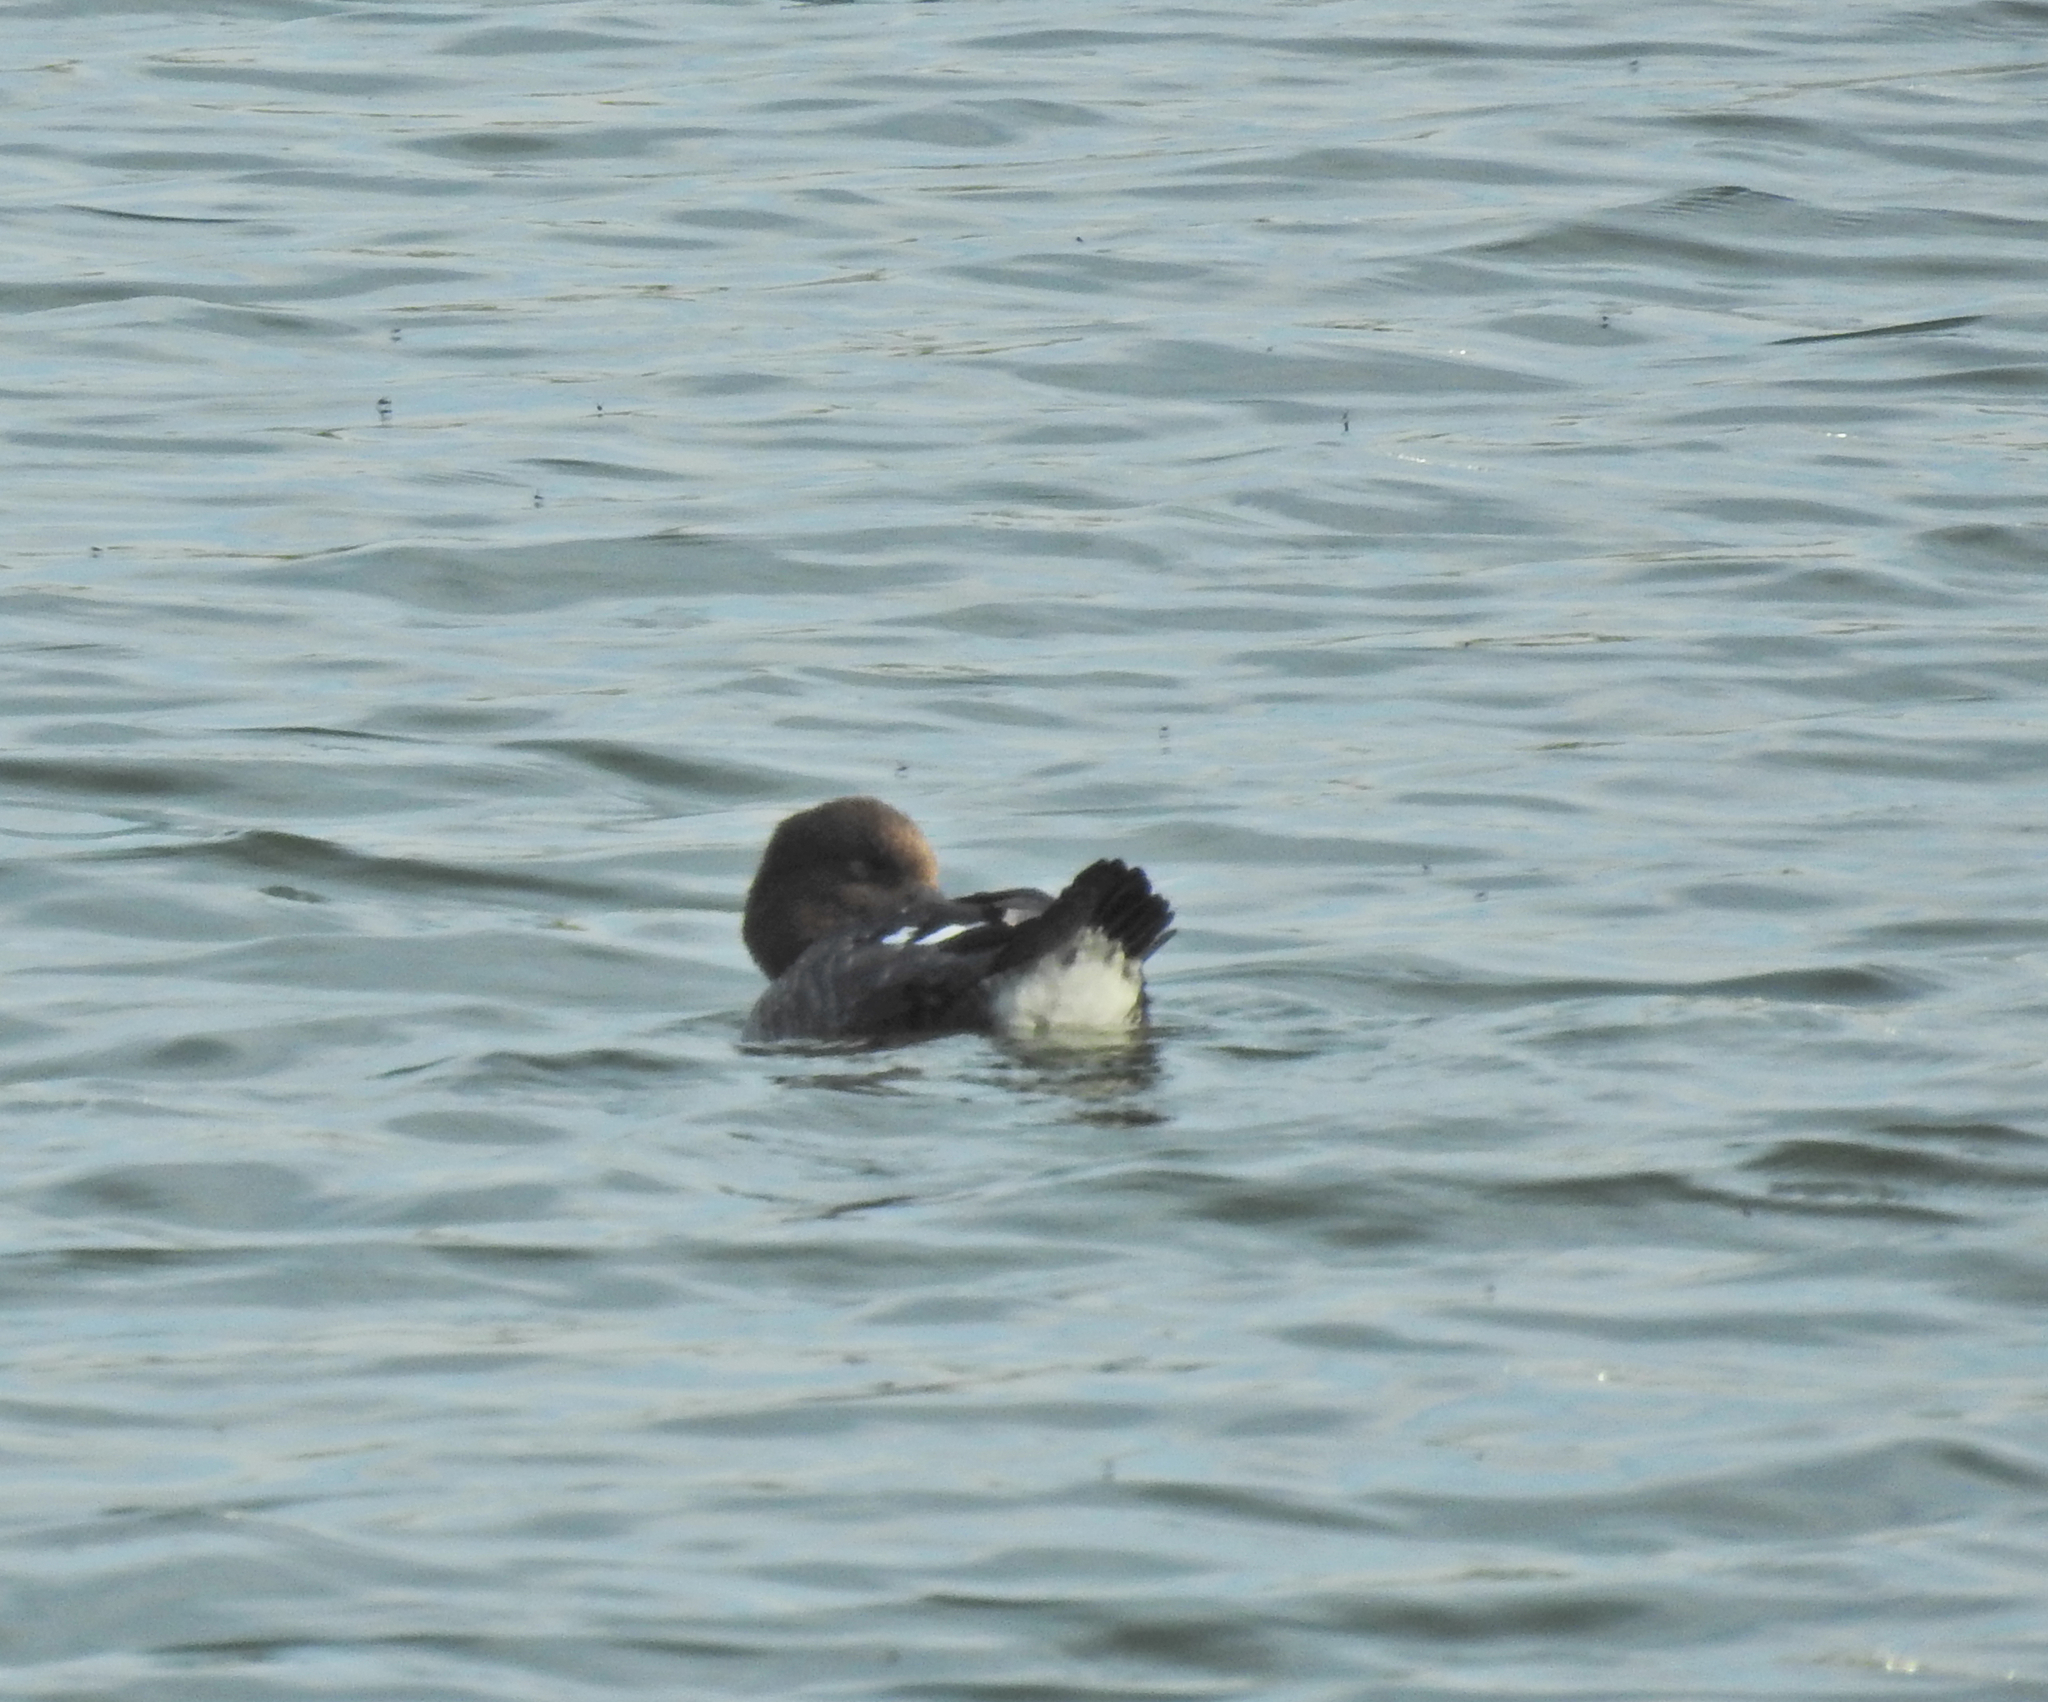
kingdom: Animalia
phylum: Chordata
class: Aves
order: Anseriformes
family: Anatidae
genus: Bucephala
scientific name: Bucephala clangula
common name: Common goldeneye
